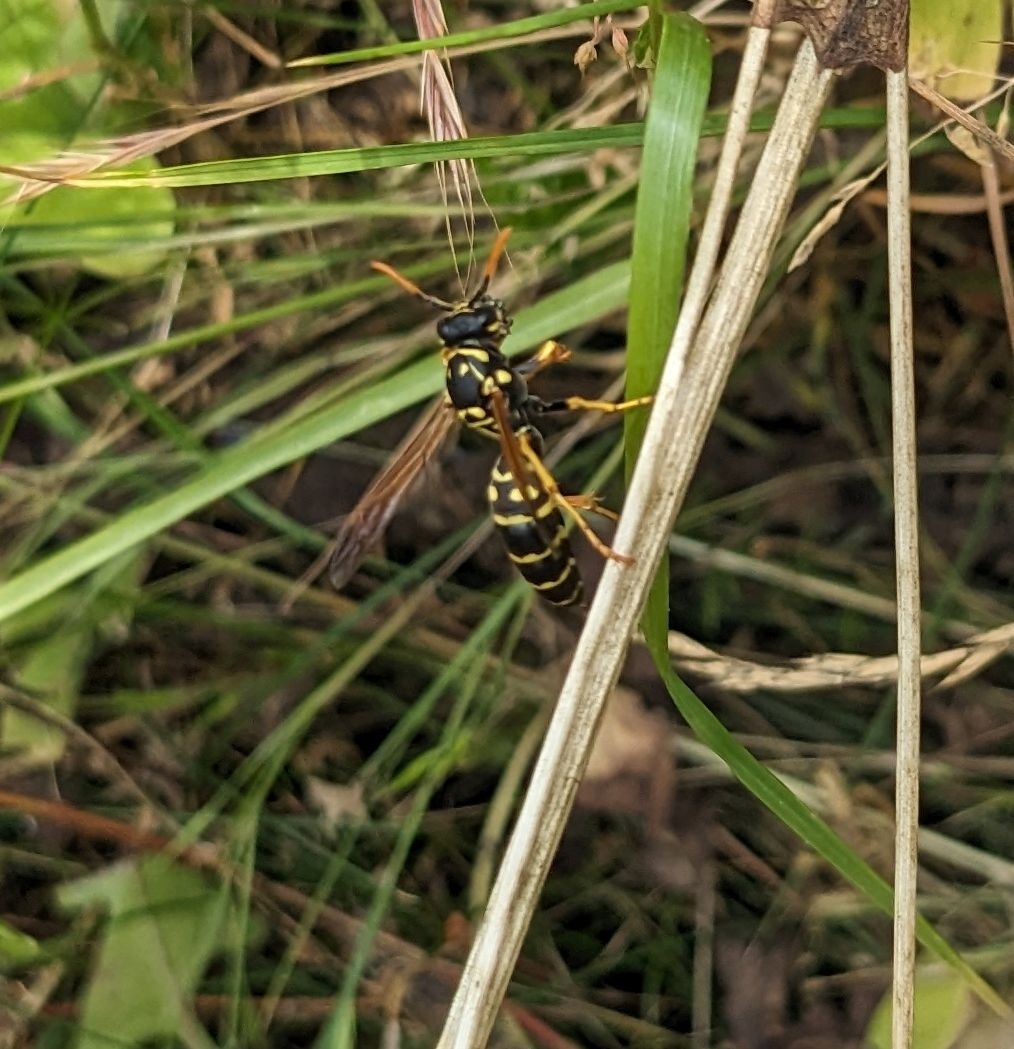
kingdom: Animalia
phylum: Arthropoda
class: Insecta
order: Hymenoptera
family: Eumenidae
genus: Polistes
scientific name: Polistes dominula
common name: Paper wasp
